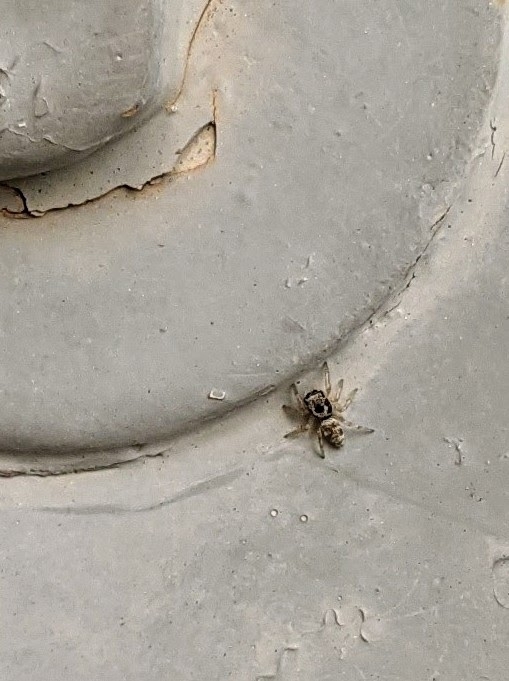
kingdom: Animalia
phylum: Arthropoda
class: Arachnida
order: Araneae
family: Salticidae
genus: Salticus
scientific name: Salticus scenicus
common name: Zebra jumper
